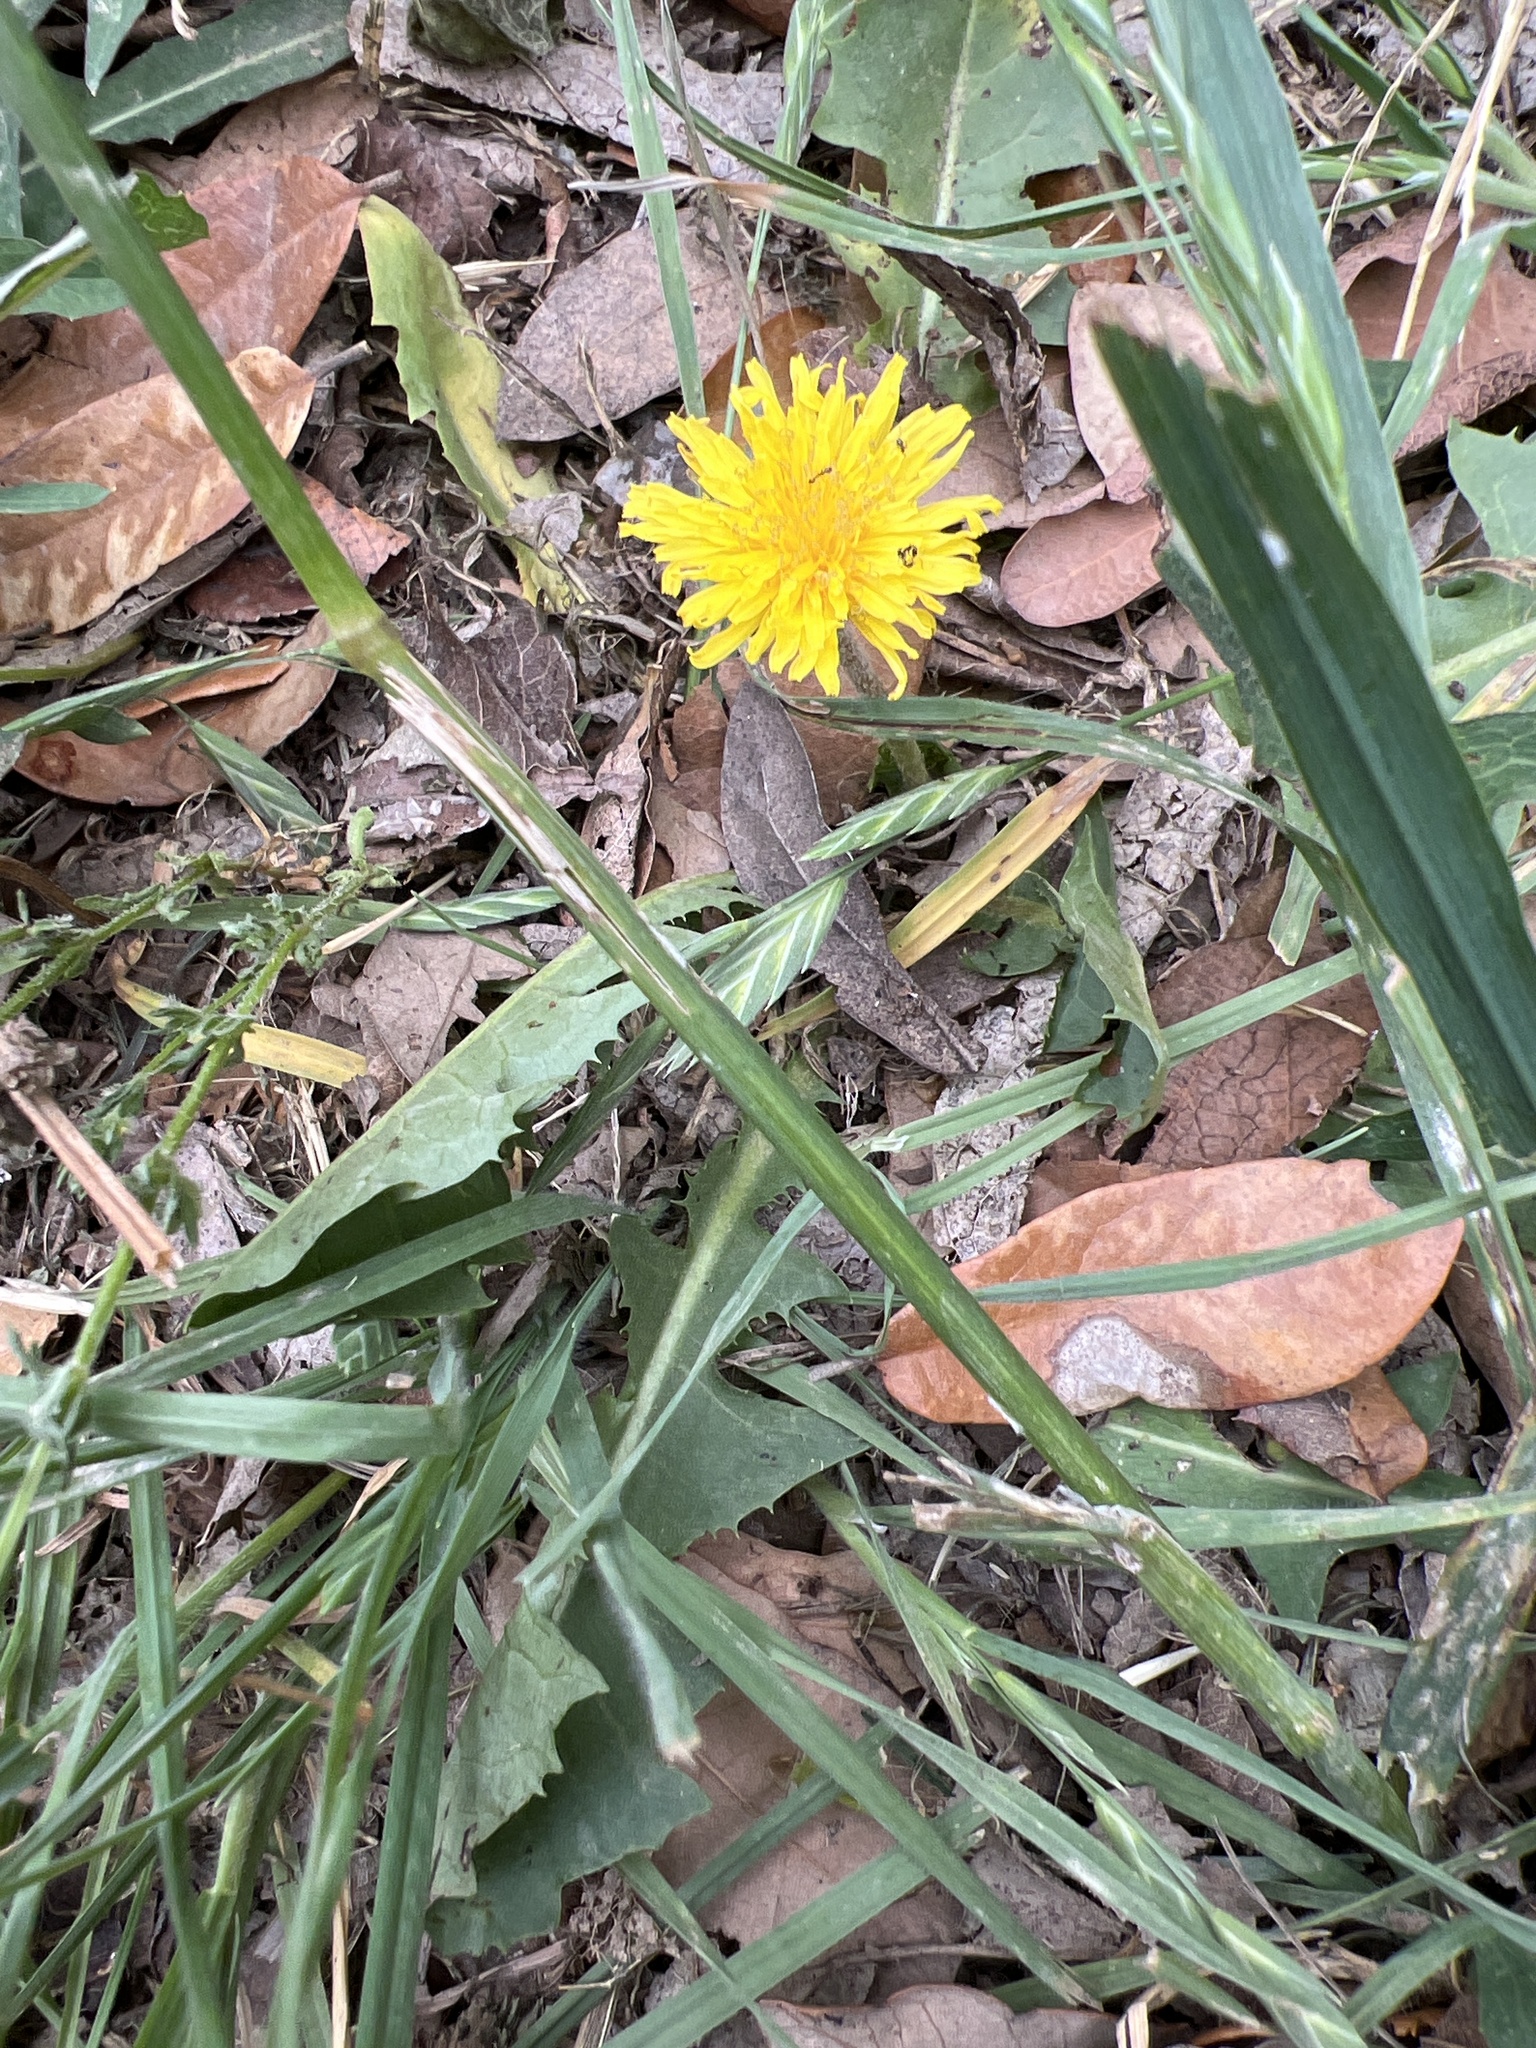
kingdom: Plantae
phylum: Tracheophyta
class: Magnoliopsida
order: Asterales
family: Asteraceae
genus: Taraxacum
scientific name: Taraxacum officinale
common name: Common dandelion
